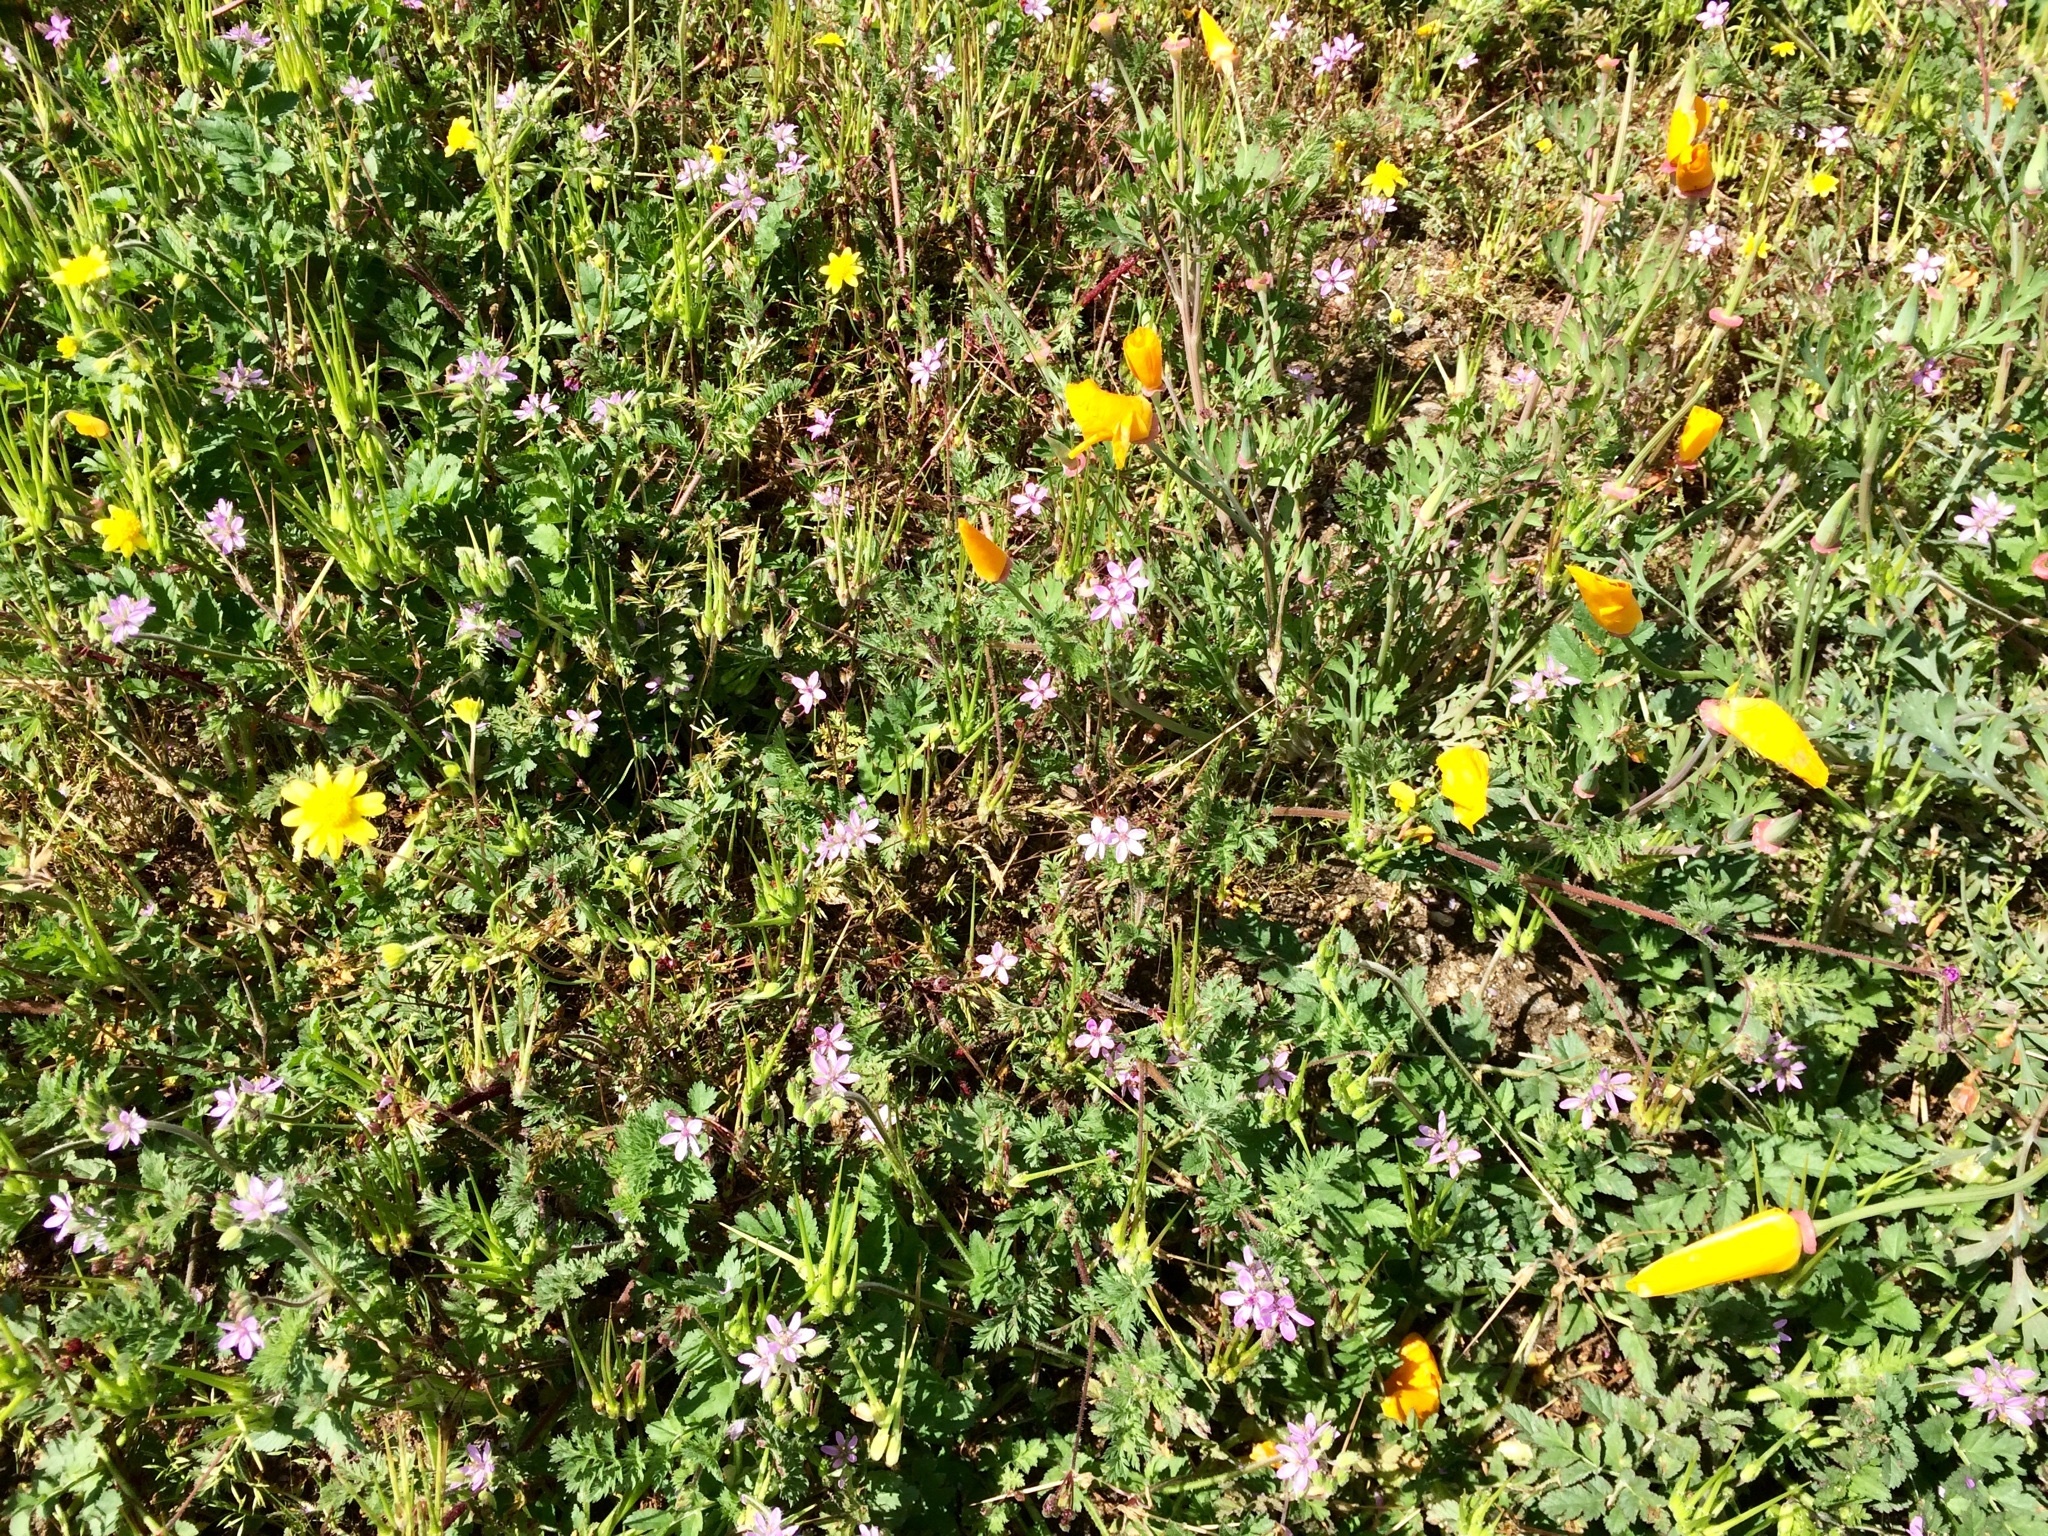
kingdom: Plantae
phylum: Tracheophyta
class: Magnoliopsida
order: Geraniales
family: Geraniaceae
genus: Erodium
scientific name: Erodium cicutarium
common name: Common stork's-bill
